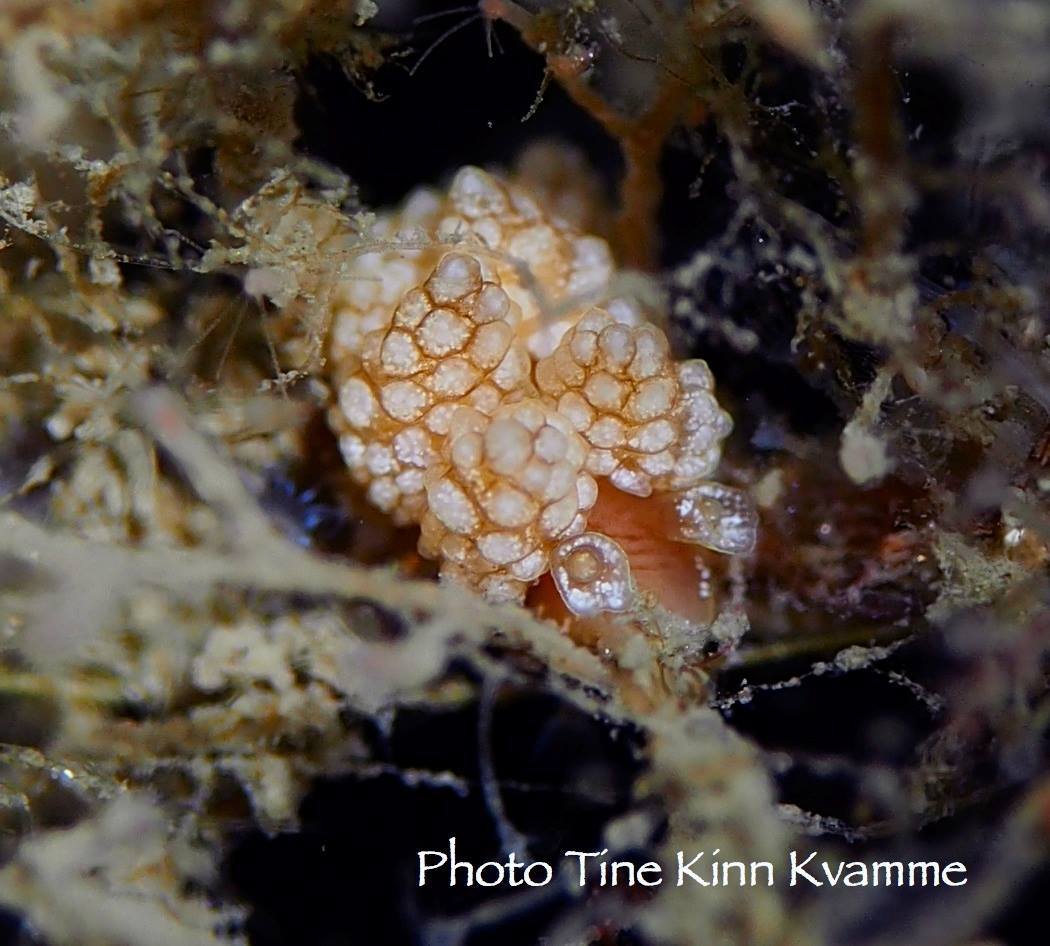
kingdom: Animalia
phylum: Mollusca
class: Gastropoda
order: Nudibranchia
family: Dotidae
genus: Doto
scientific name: Doto fragilis
